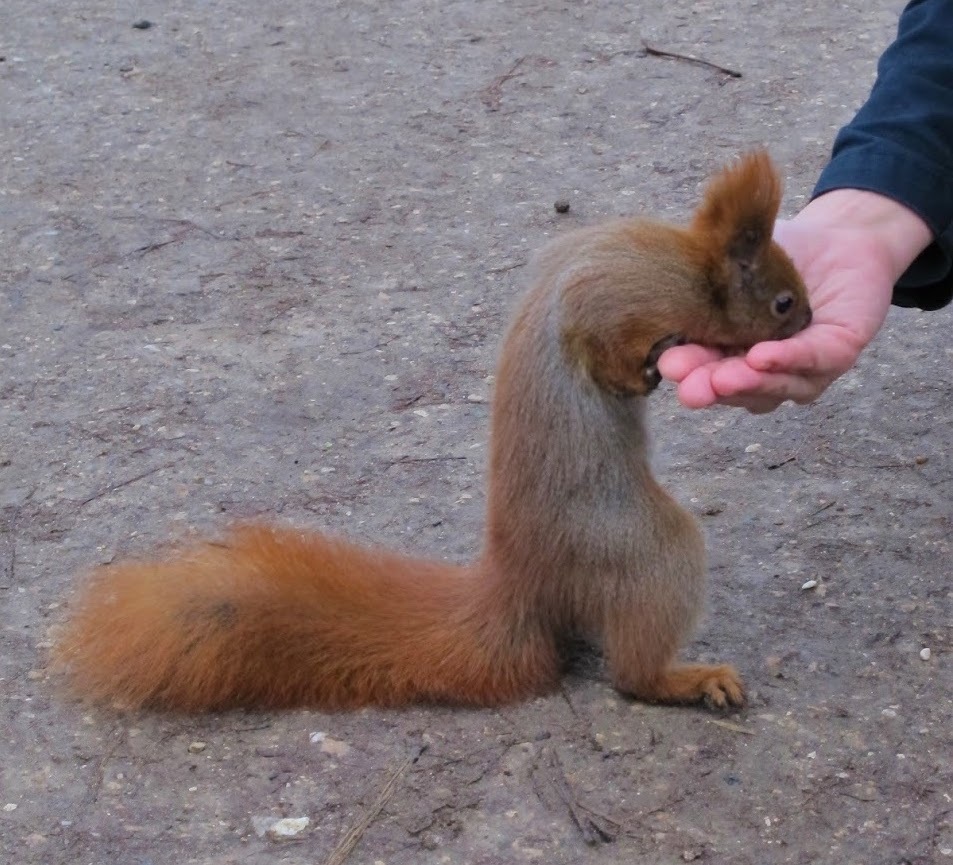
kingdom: Animalia
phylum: Chordata
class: Mammalia
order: Rodentia
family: Sciuridae
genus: Sciurus
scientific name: Sciurus vulgaris
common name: Eurasian red squirrel
